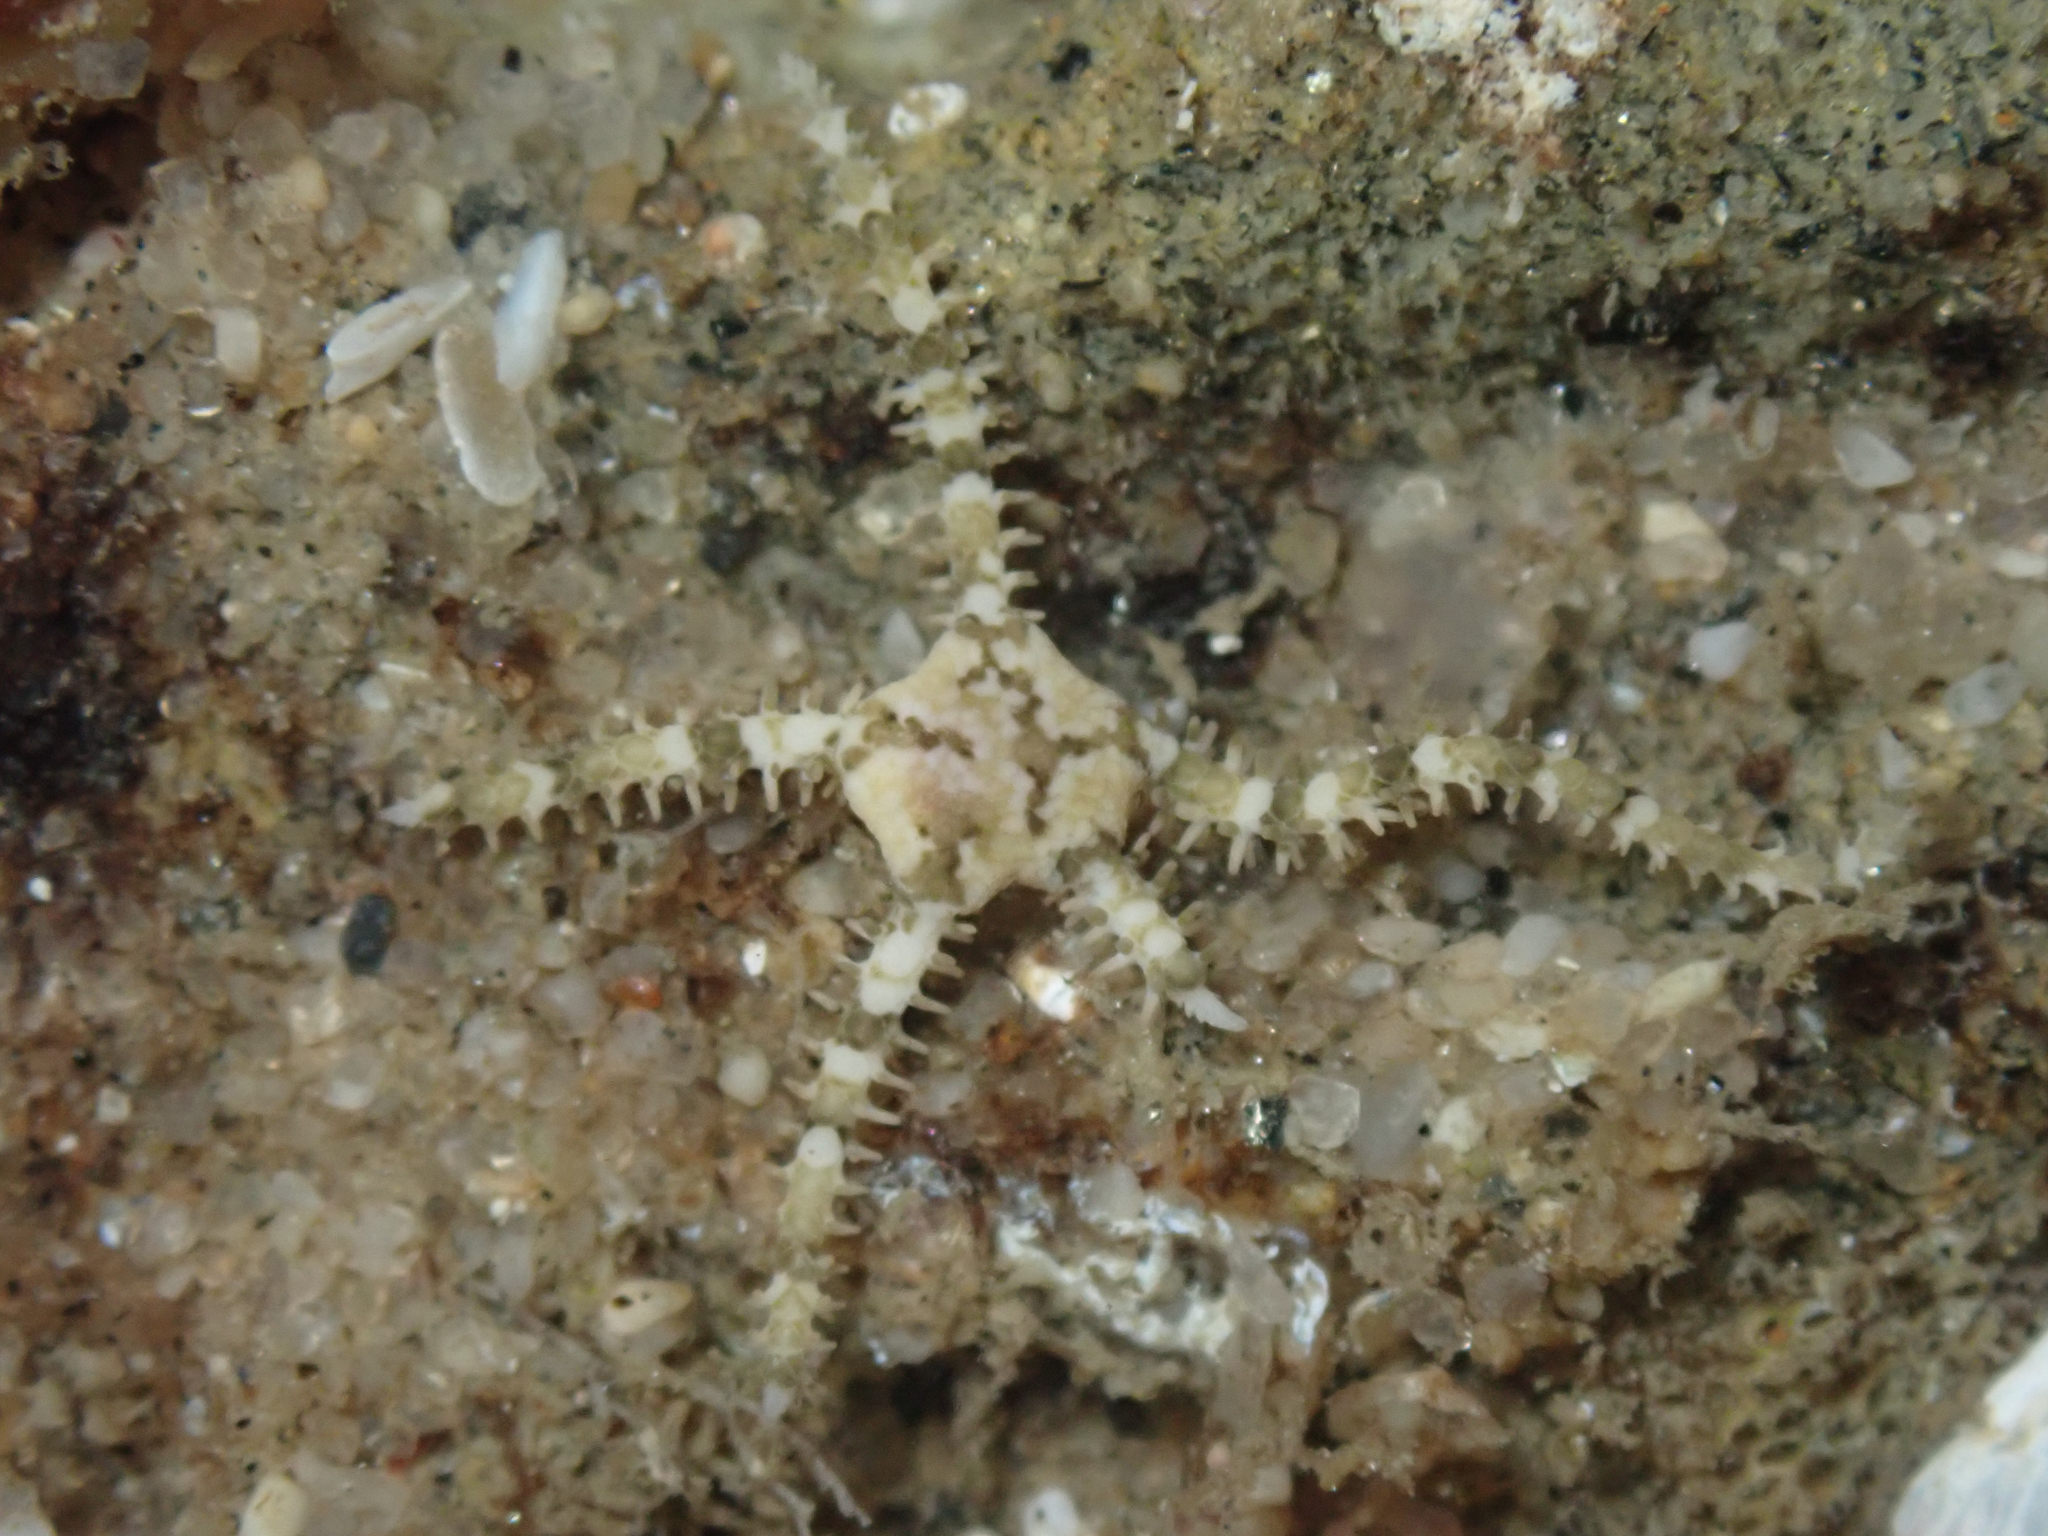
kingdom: Animalia
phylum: Echinodermata
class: Ophiuroidea
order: Amphilepidida
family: Ophionereididae
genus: Ophionereis
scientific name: Ophionereis diabloensis
